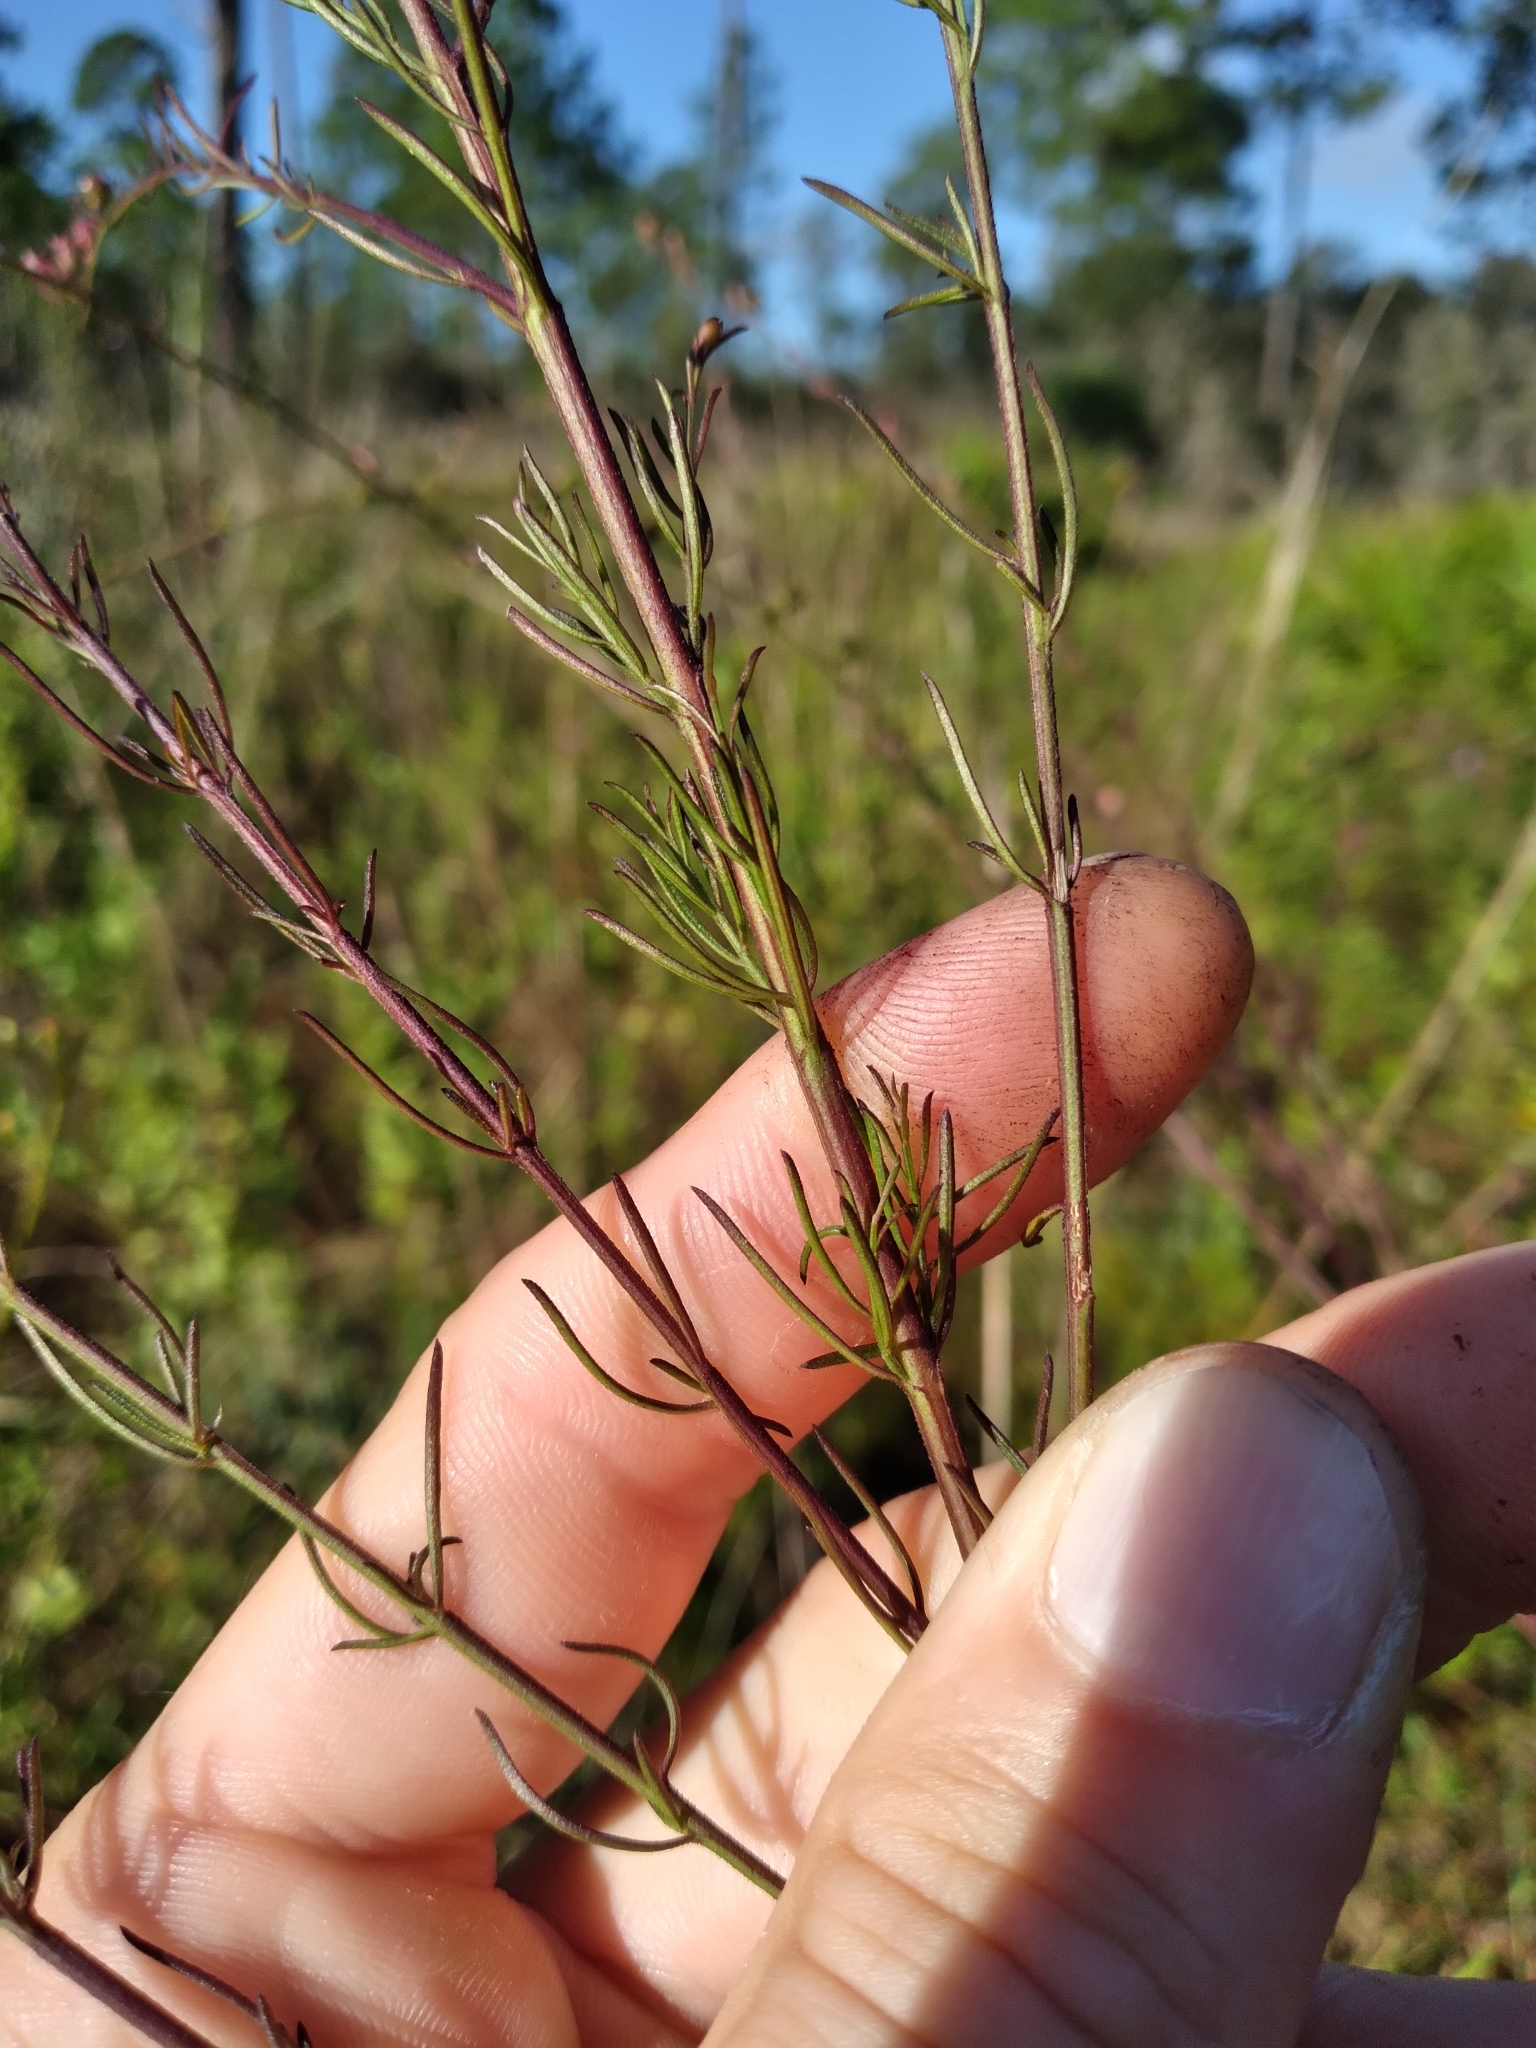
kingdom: Plantae
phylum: Tracheophyta
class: Magnoliopsida
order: Lamiales
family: Orobanchaceae
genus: Agalinis
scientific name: Agalinis fasciculata
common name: Beach false foxglove
